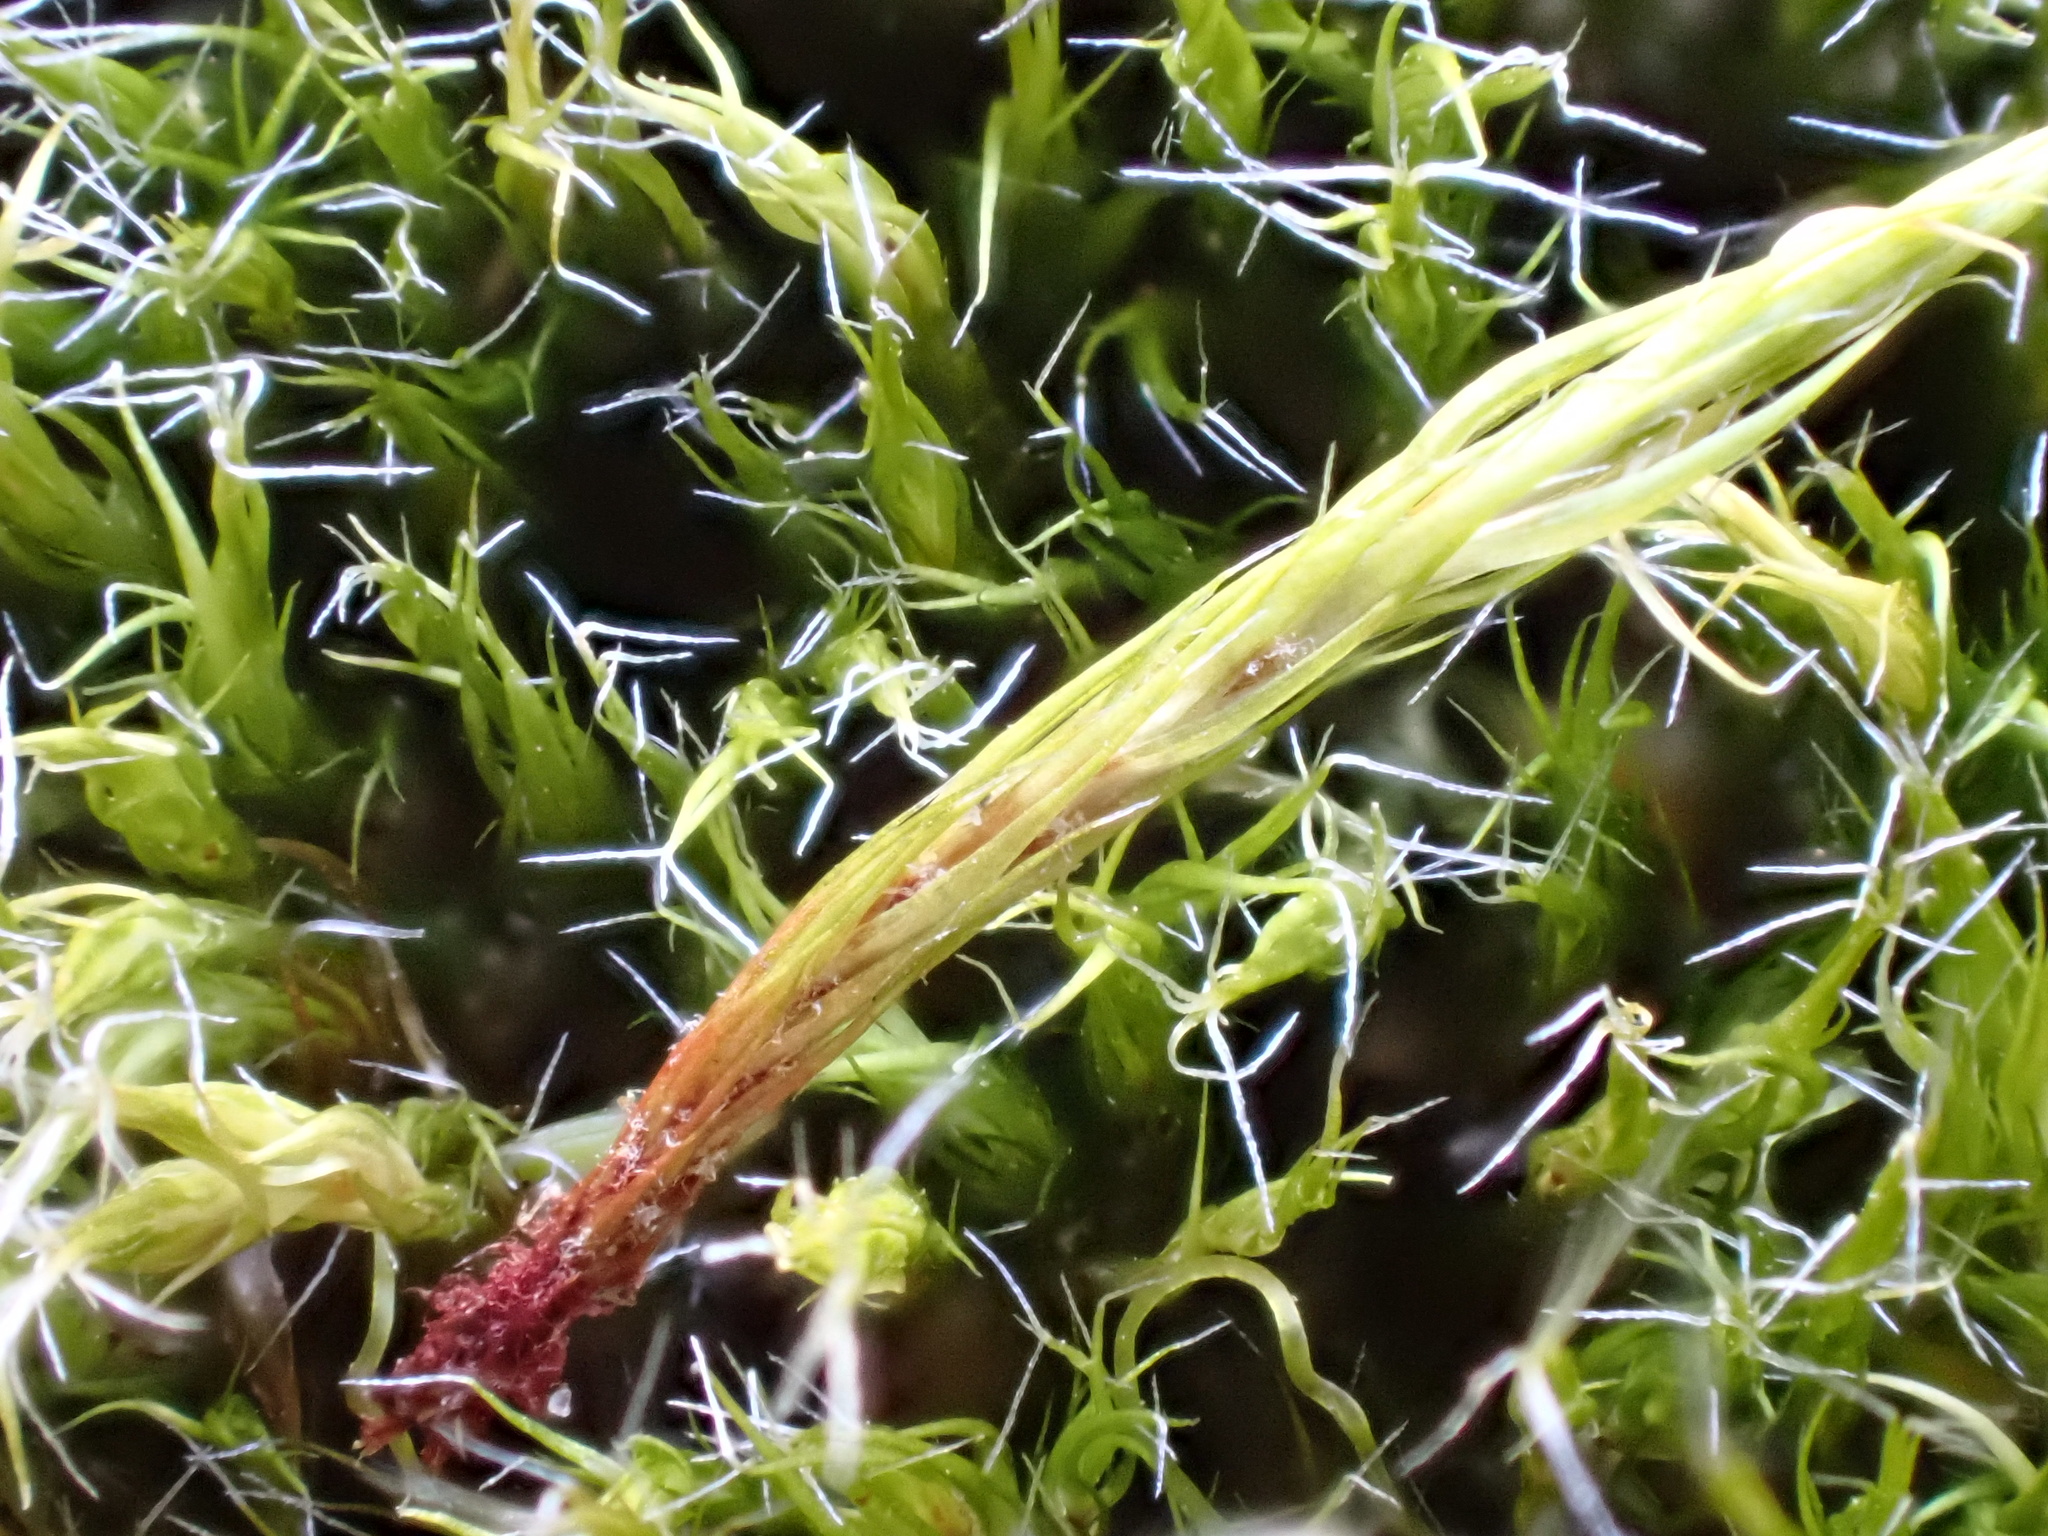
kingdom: Plantae
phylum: Bryophyta
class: Bryopsida
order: Dicranales
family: Leucobryaceae
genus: Campylopus
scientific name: Campylopus introflexus
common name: Heath star moss
